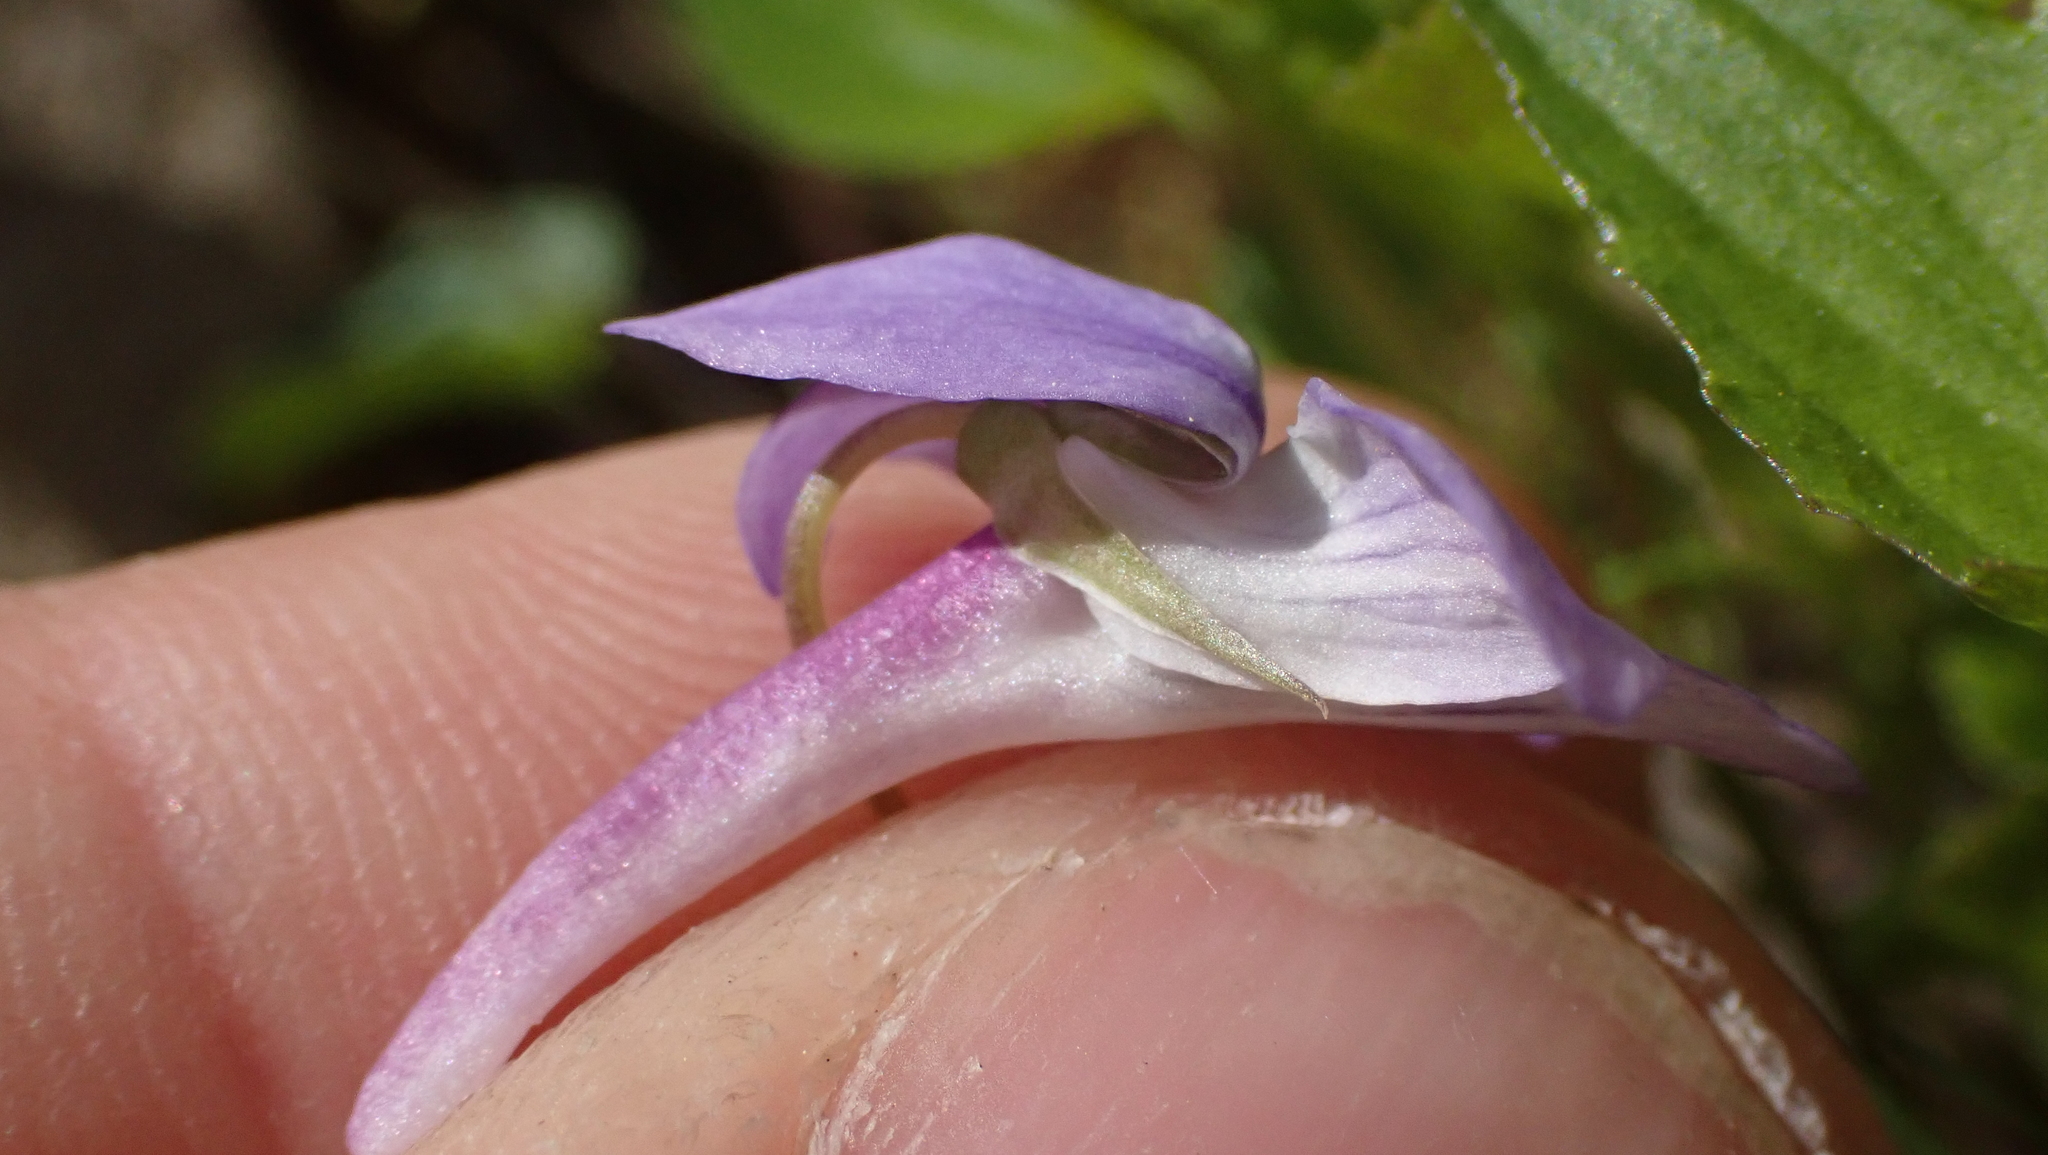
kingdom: Plantae
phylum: Tracheophyta
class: Magnoliopsida
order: Malpighiales
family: Violaceae
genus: Viola
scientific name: Viola rostrata
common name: Long-spur violet
